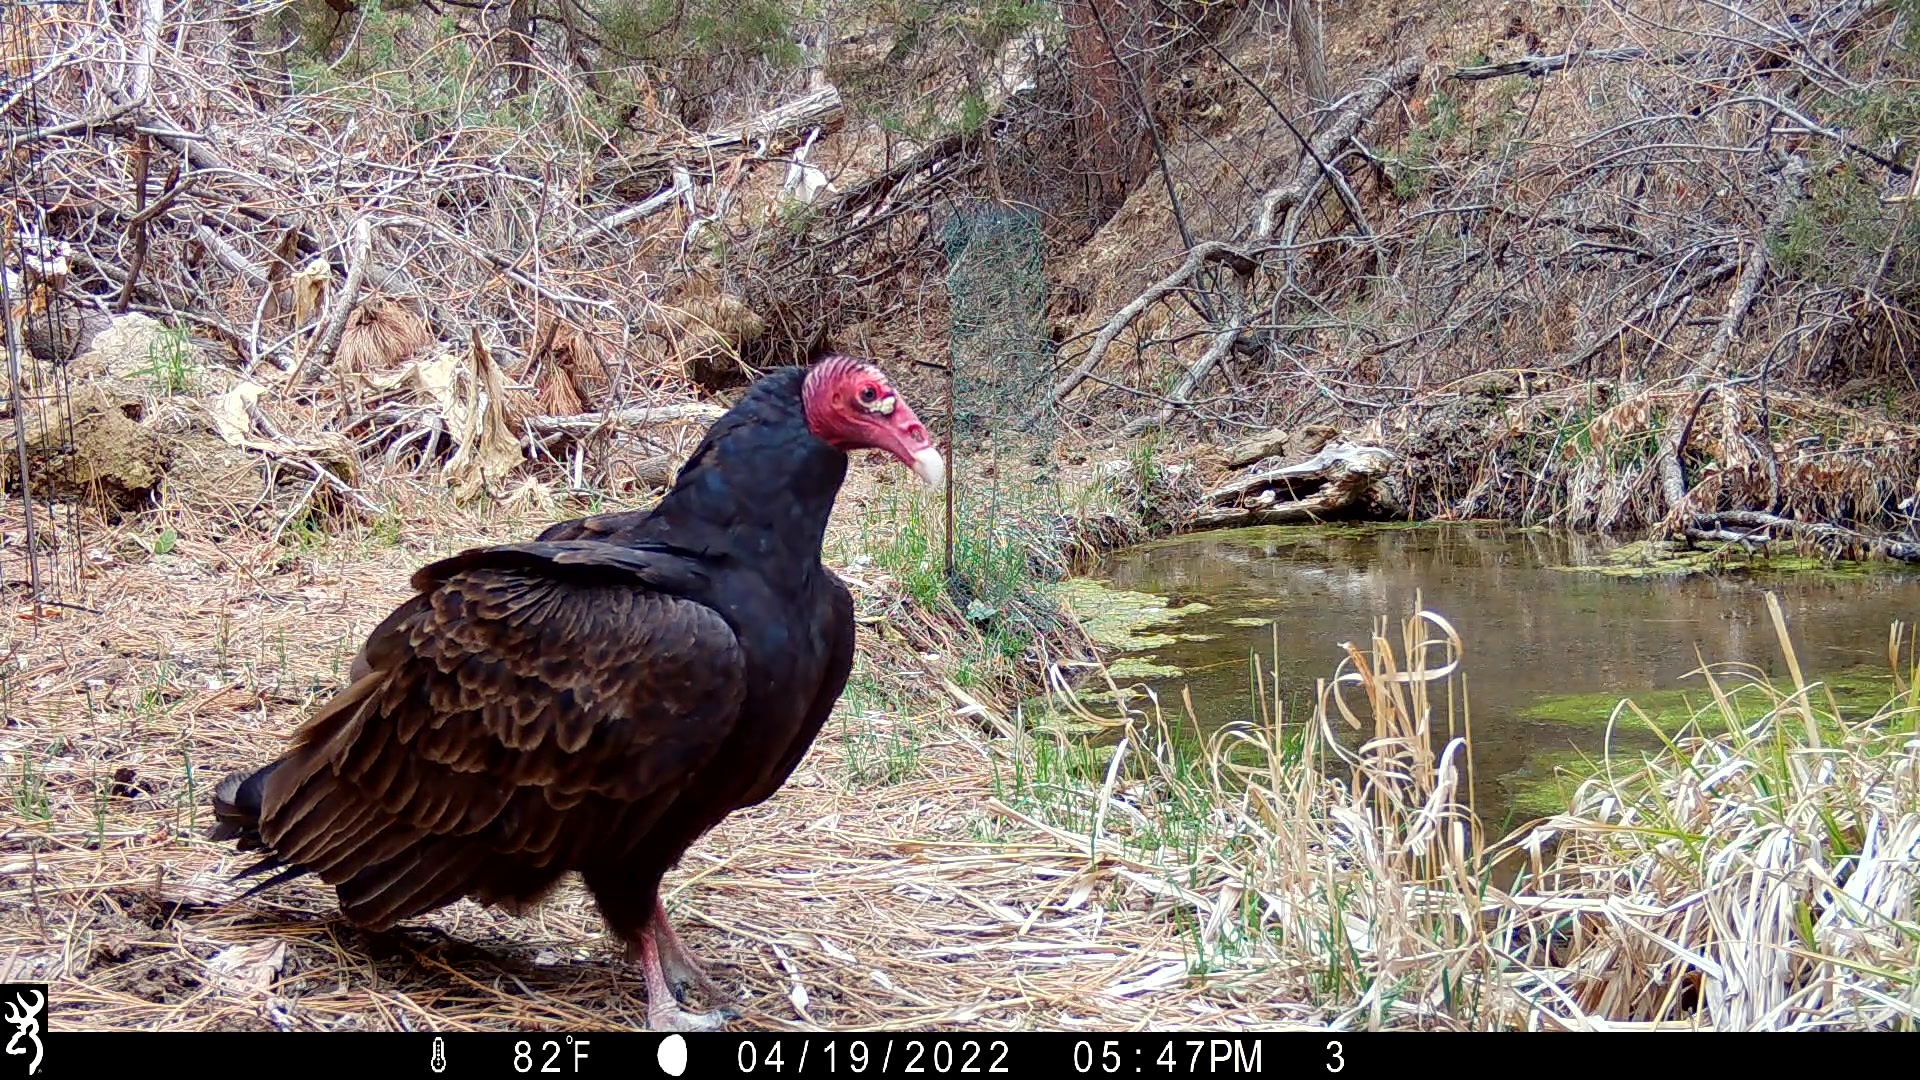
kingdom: Animalia
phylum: Chordata
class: Aves
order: Accipitriformes
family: Cathartidae
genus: Cathartes
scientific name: Cathartes aura
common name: Turkey vulture
